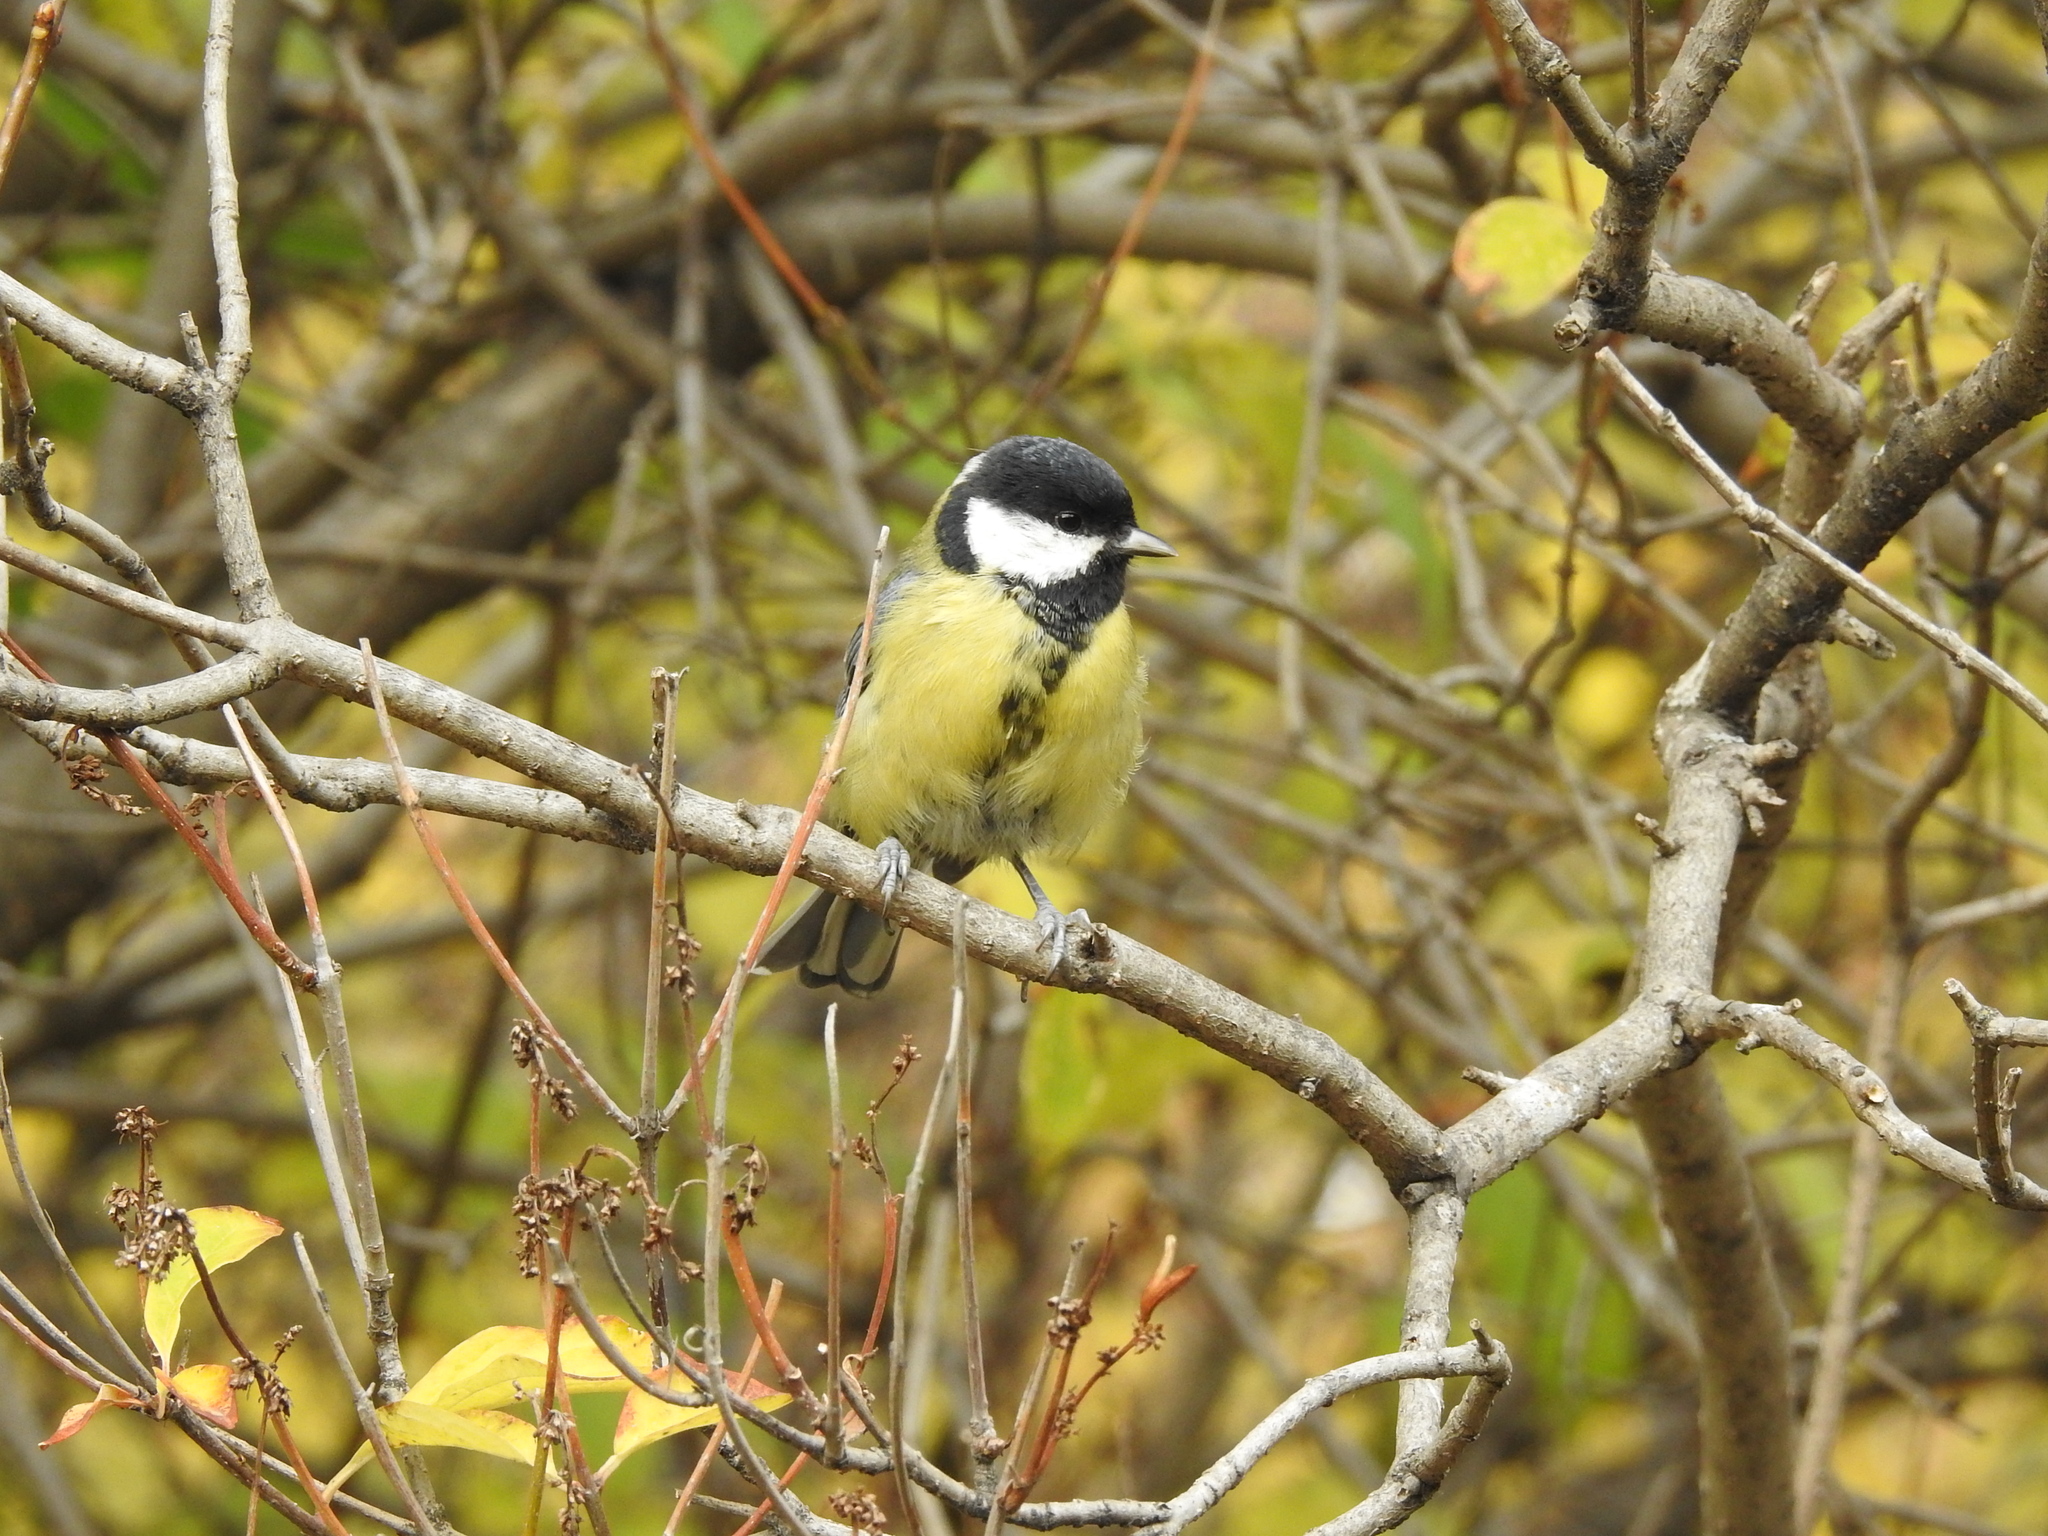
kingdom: Animalia
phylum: Chordata
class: Aves
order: Passeriformes
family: Paridae
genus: Parus
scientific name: Parus major
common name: Great tit
